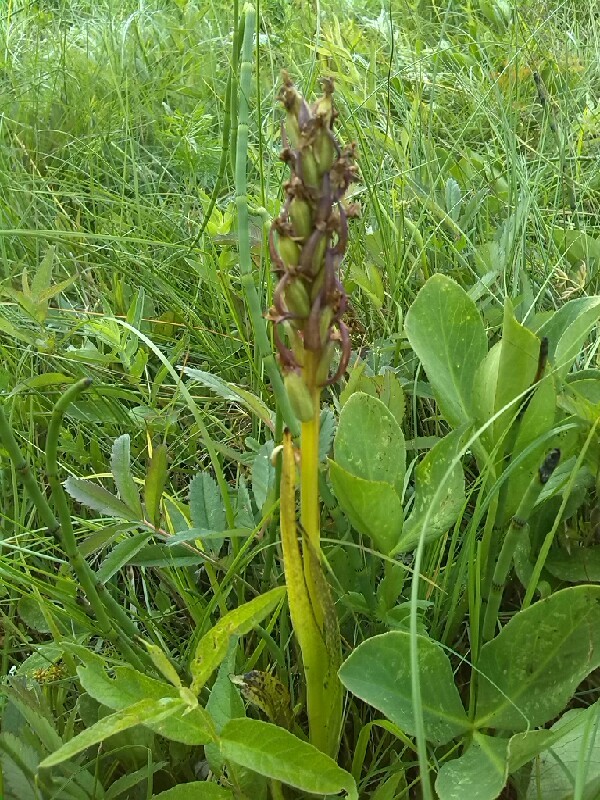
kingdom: Plantae
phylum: Tracheophyta
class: Liliopsida
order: Asparagales
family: Orchidaceae
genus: Dactylorhiza
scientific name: Dactylorhiza incarnata
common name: Early marsh-orchid
